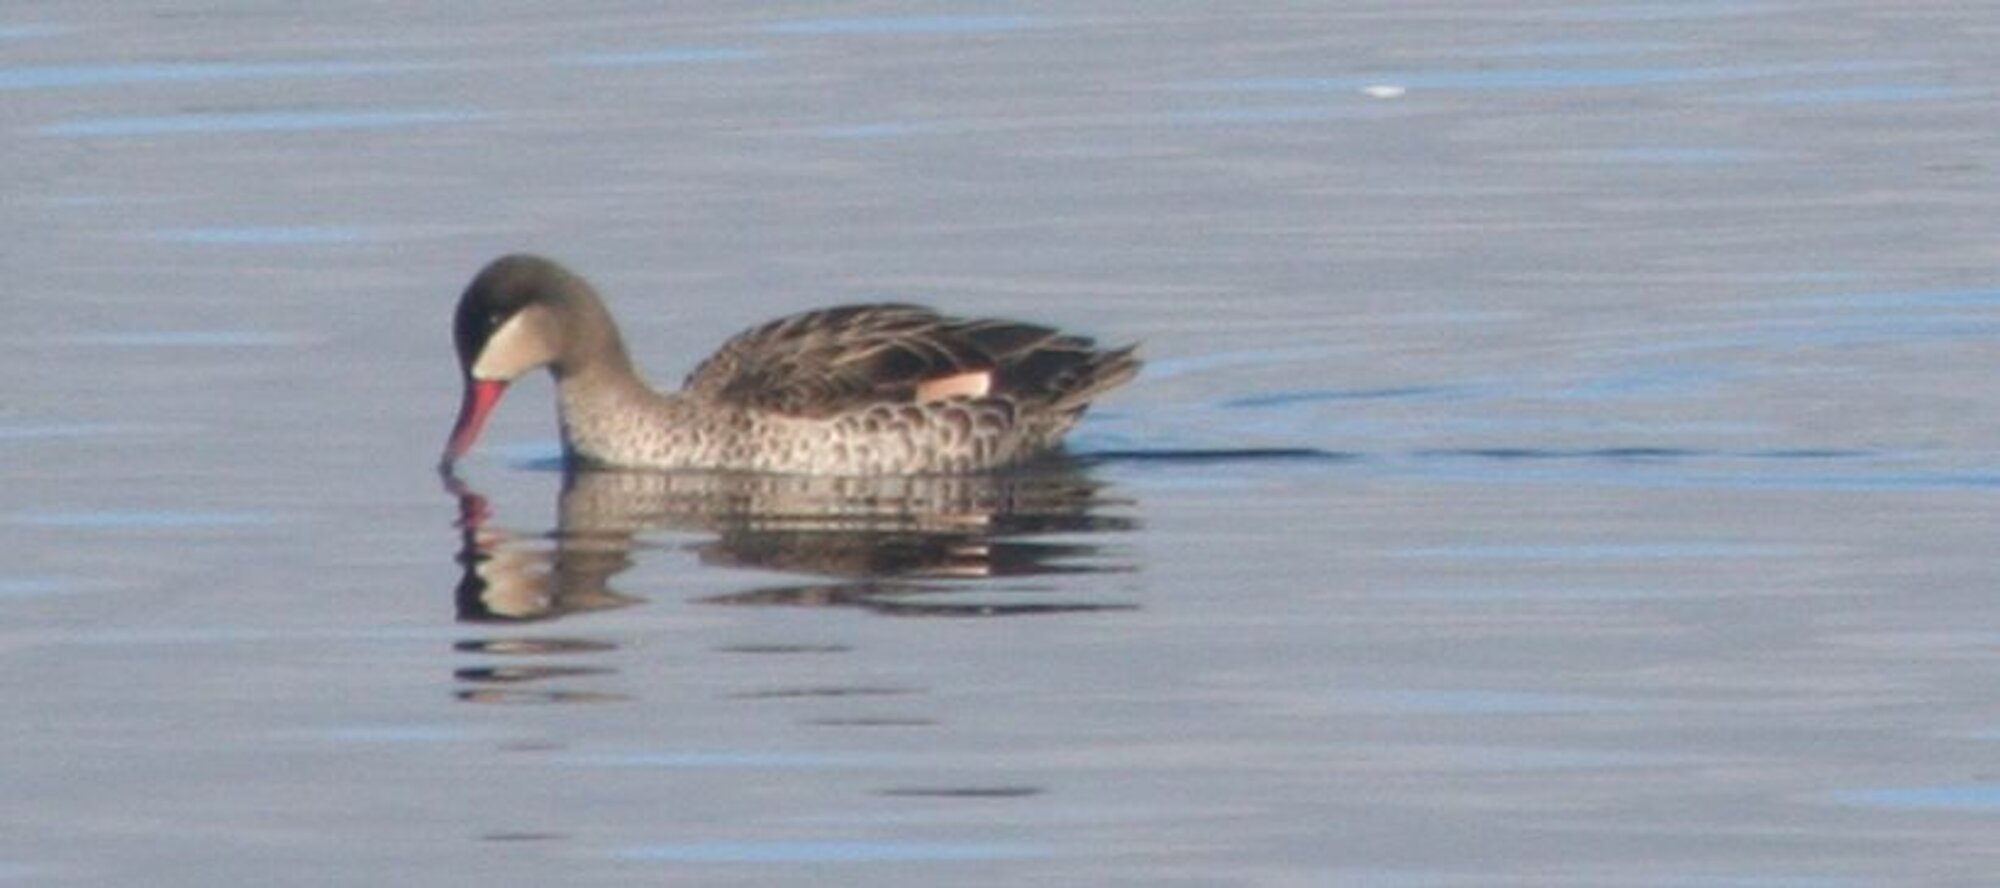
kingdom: Animalia
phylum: Chordata
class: Aves
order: Anseriformes
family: Anatidae
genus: Anas
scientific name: Anas erythrorhyncha
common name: Red-billed teal
